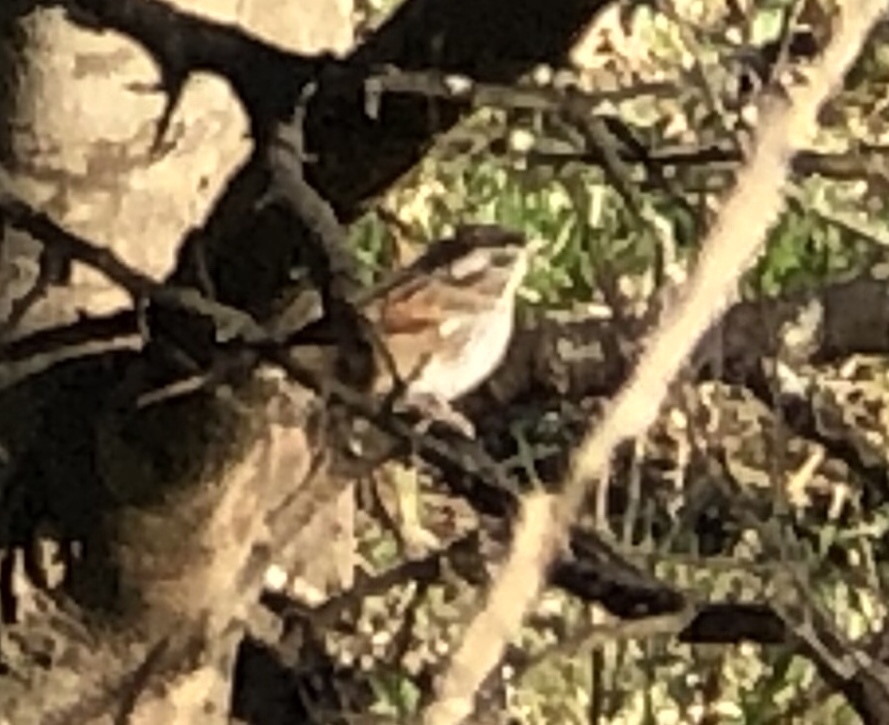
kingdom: Animalia
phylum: Chordata
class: Aves
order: Passeriformes
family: Passerellidae
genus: Zonotrichia
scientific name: Zonotrichia albicollis
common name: White-throated sparrow
